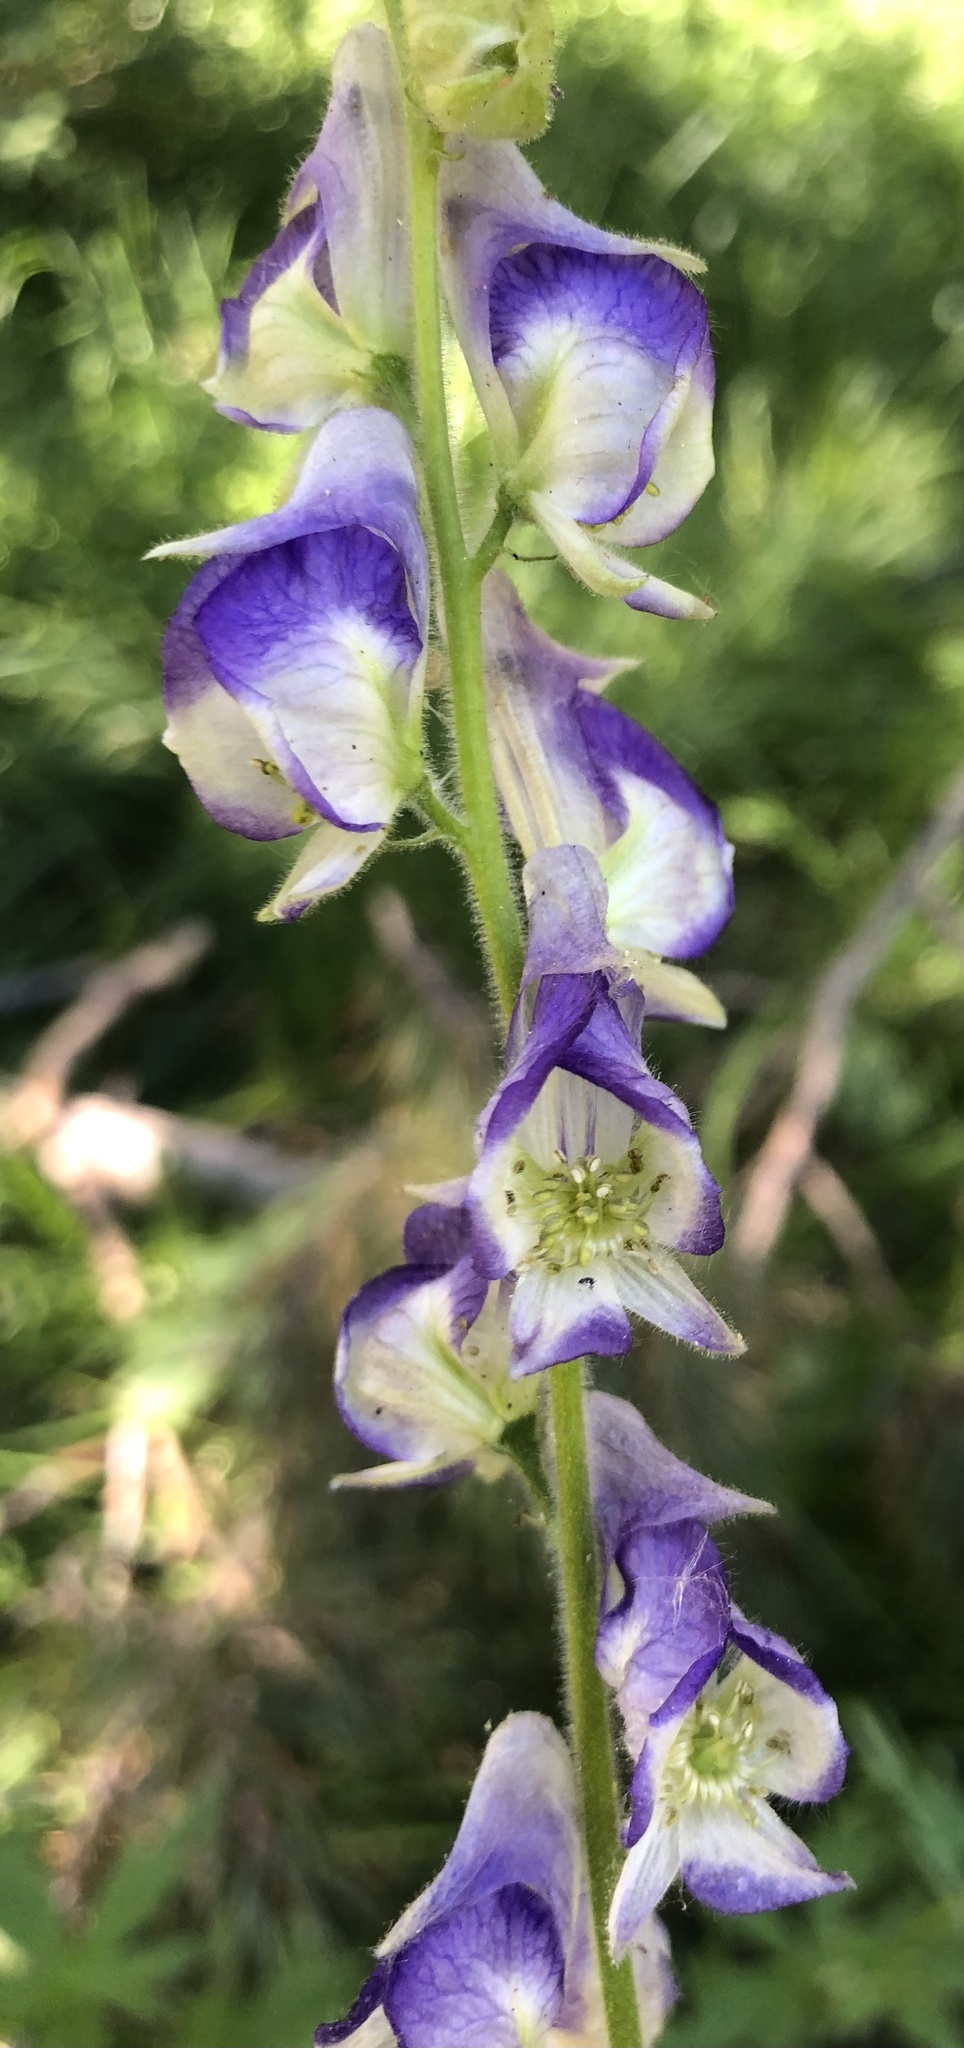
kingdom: Plantae
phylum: Tracheophyta
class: Magnoliopsida
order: Ranunculales
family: Ranunculaceae
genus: Aconitum
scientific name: Aconitum columbianum
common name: Columbia aconite
